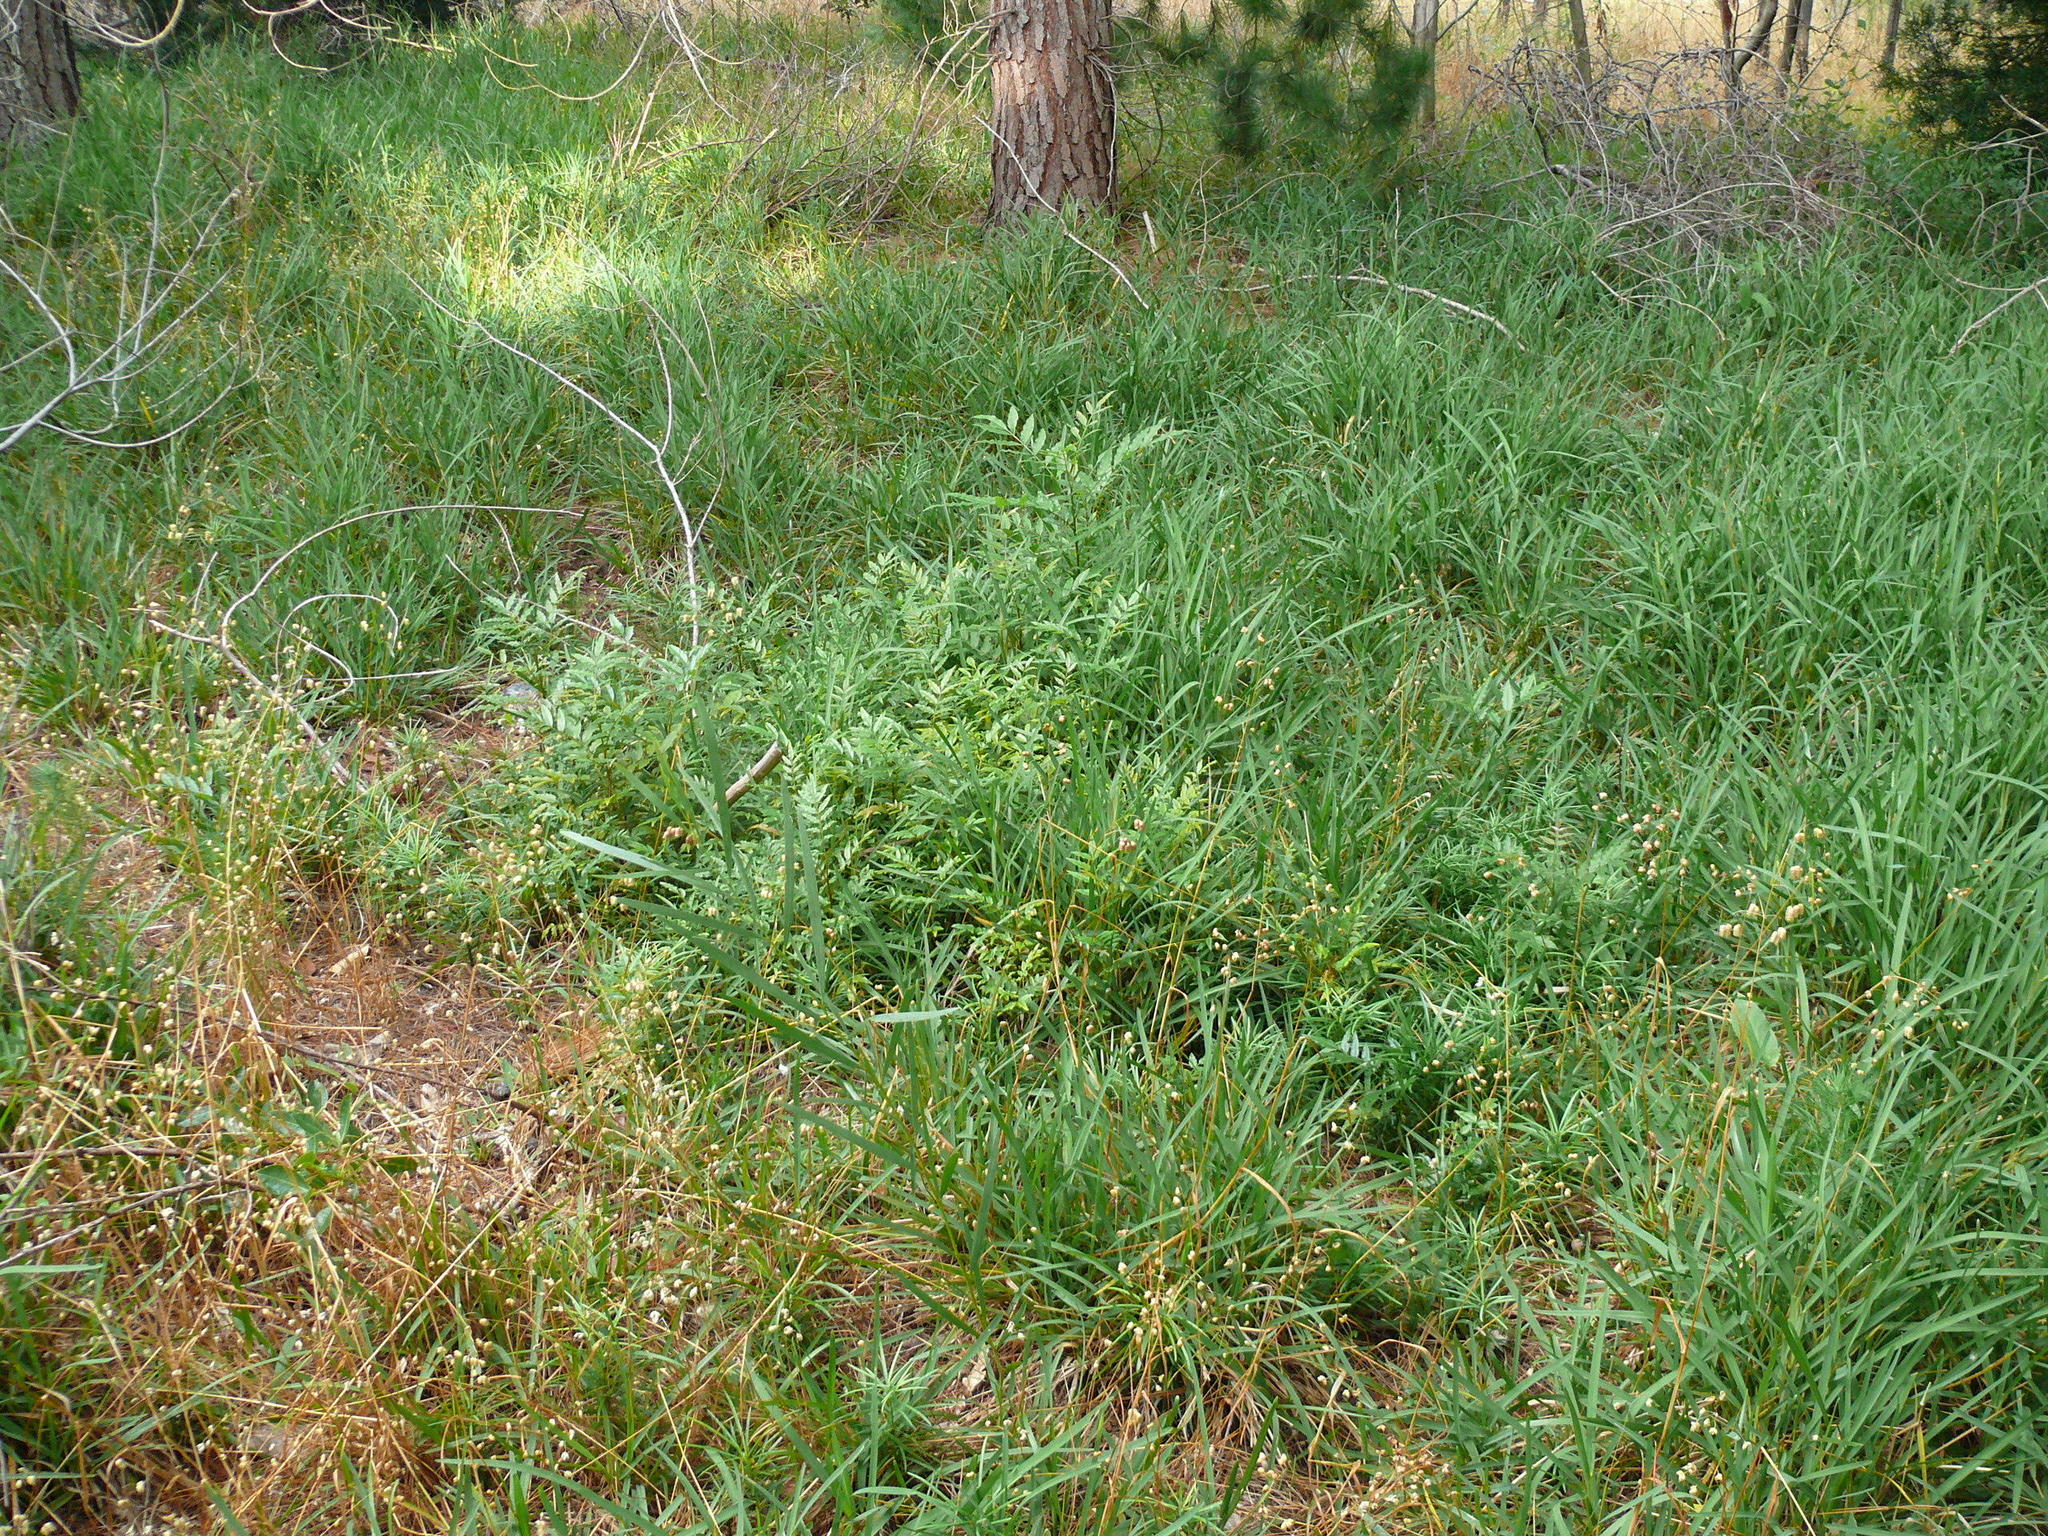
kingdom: Plantae
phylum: Tracheophyta
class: Magnoliopsida
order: Sapindales
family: Anacardiaceae
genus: Harpephyllum
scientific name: Harpephyllum caffrum
